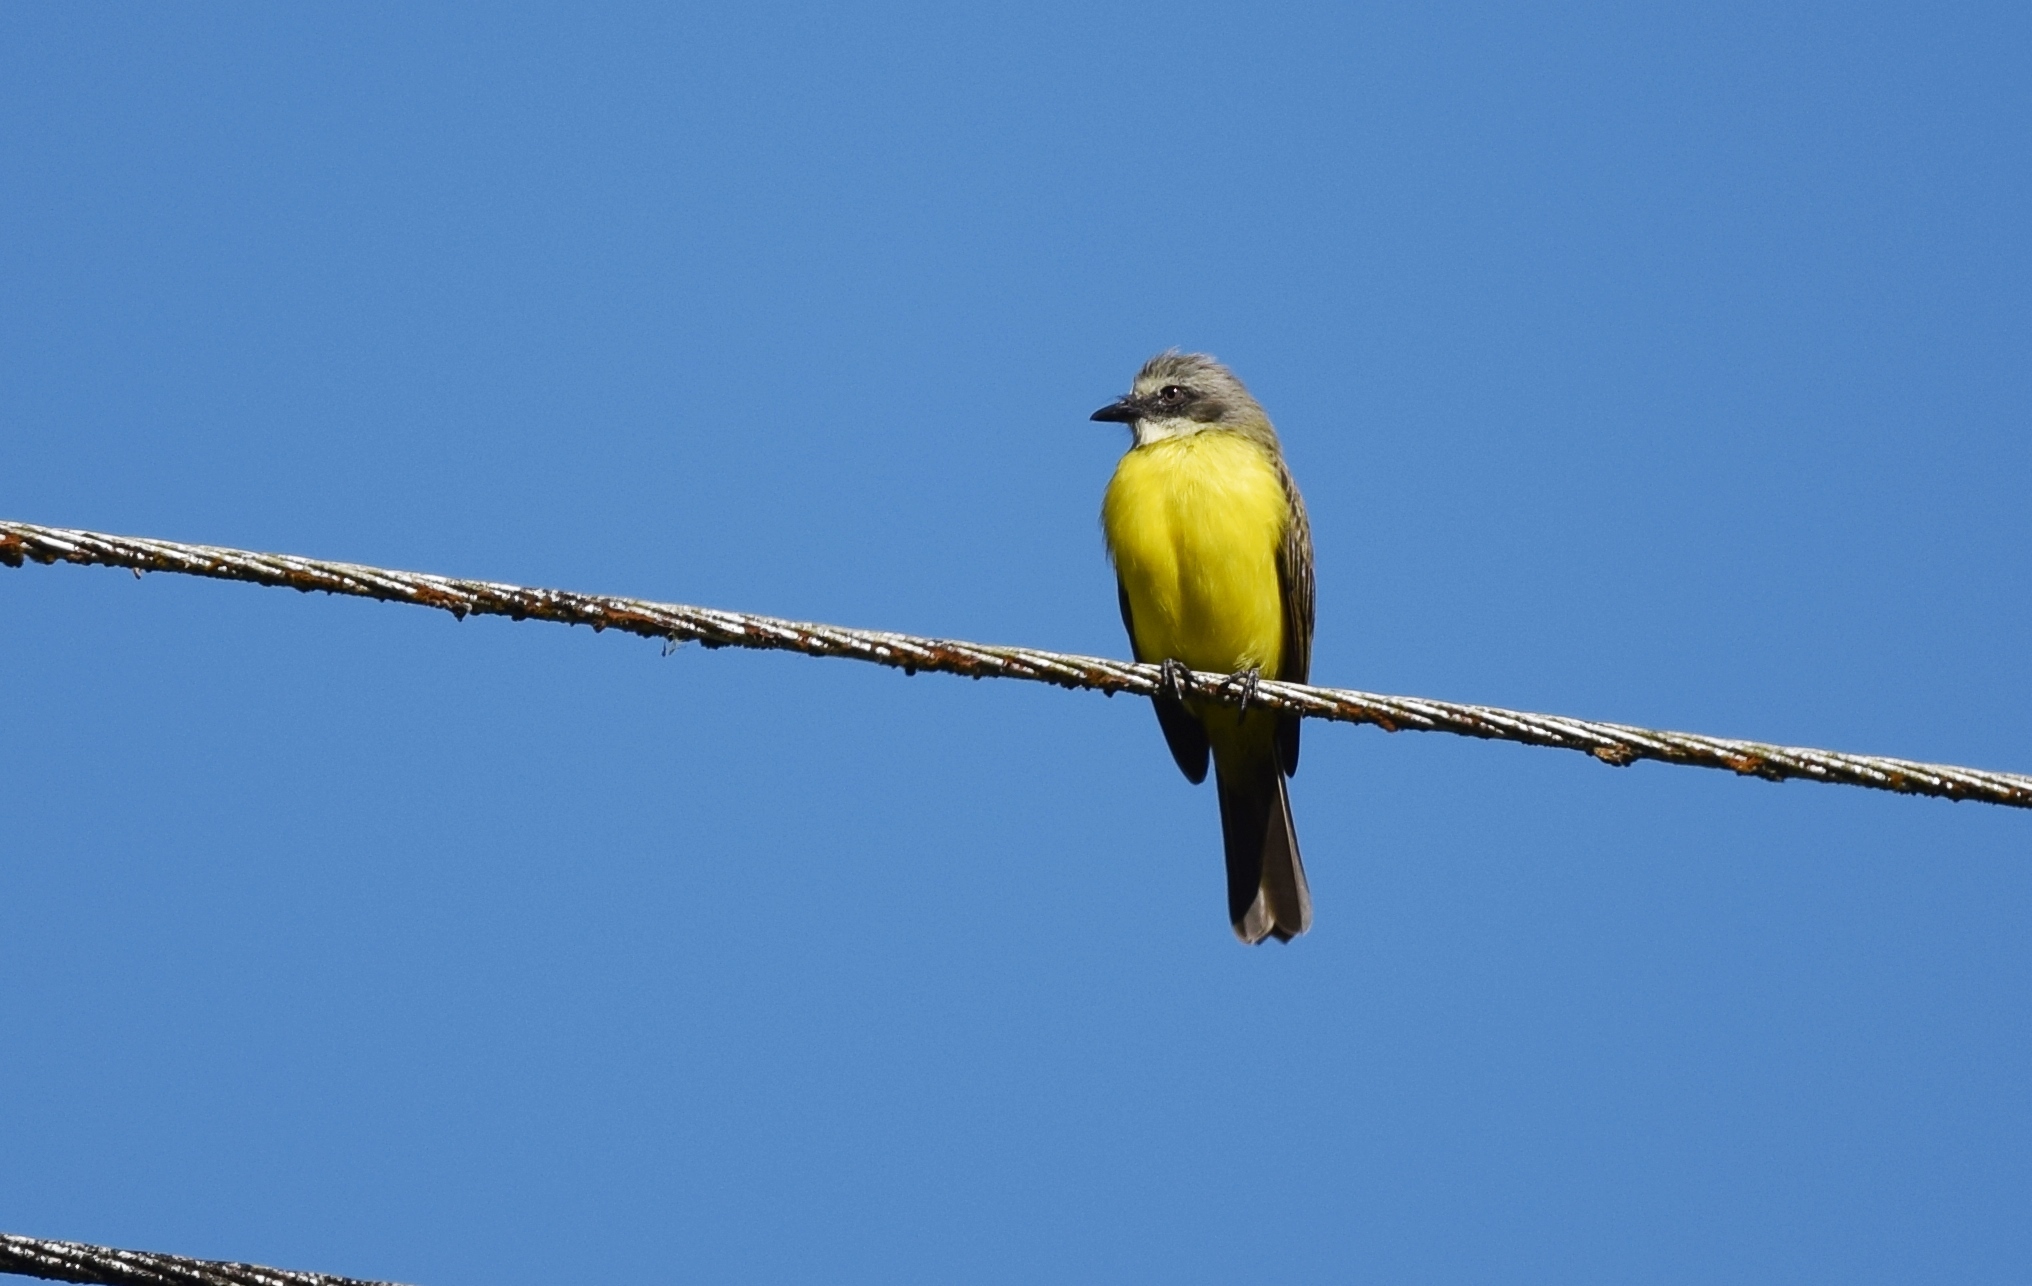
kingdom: Animalia
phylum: Chordata
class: Aves
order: Passeriformes
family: Tyrannidae
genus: Myiozetetes
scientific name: Myiozetetes granadensis
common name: Gray-capped flycatcher
